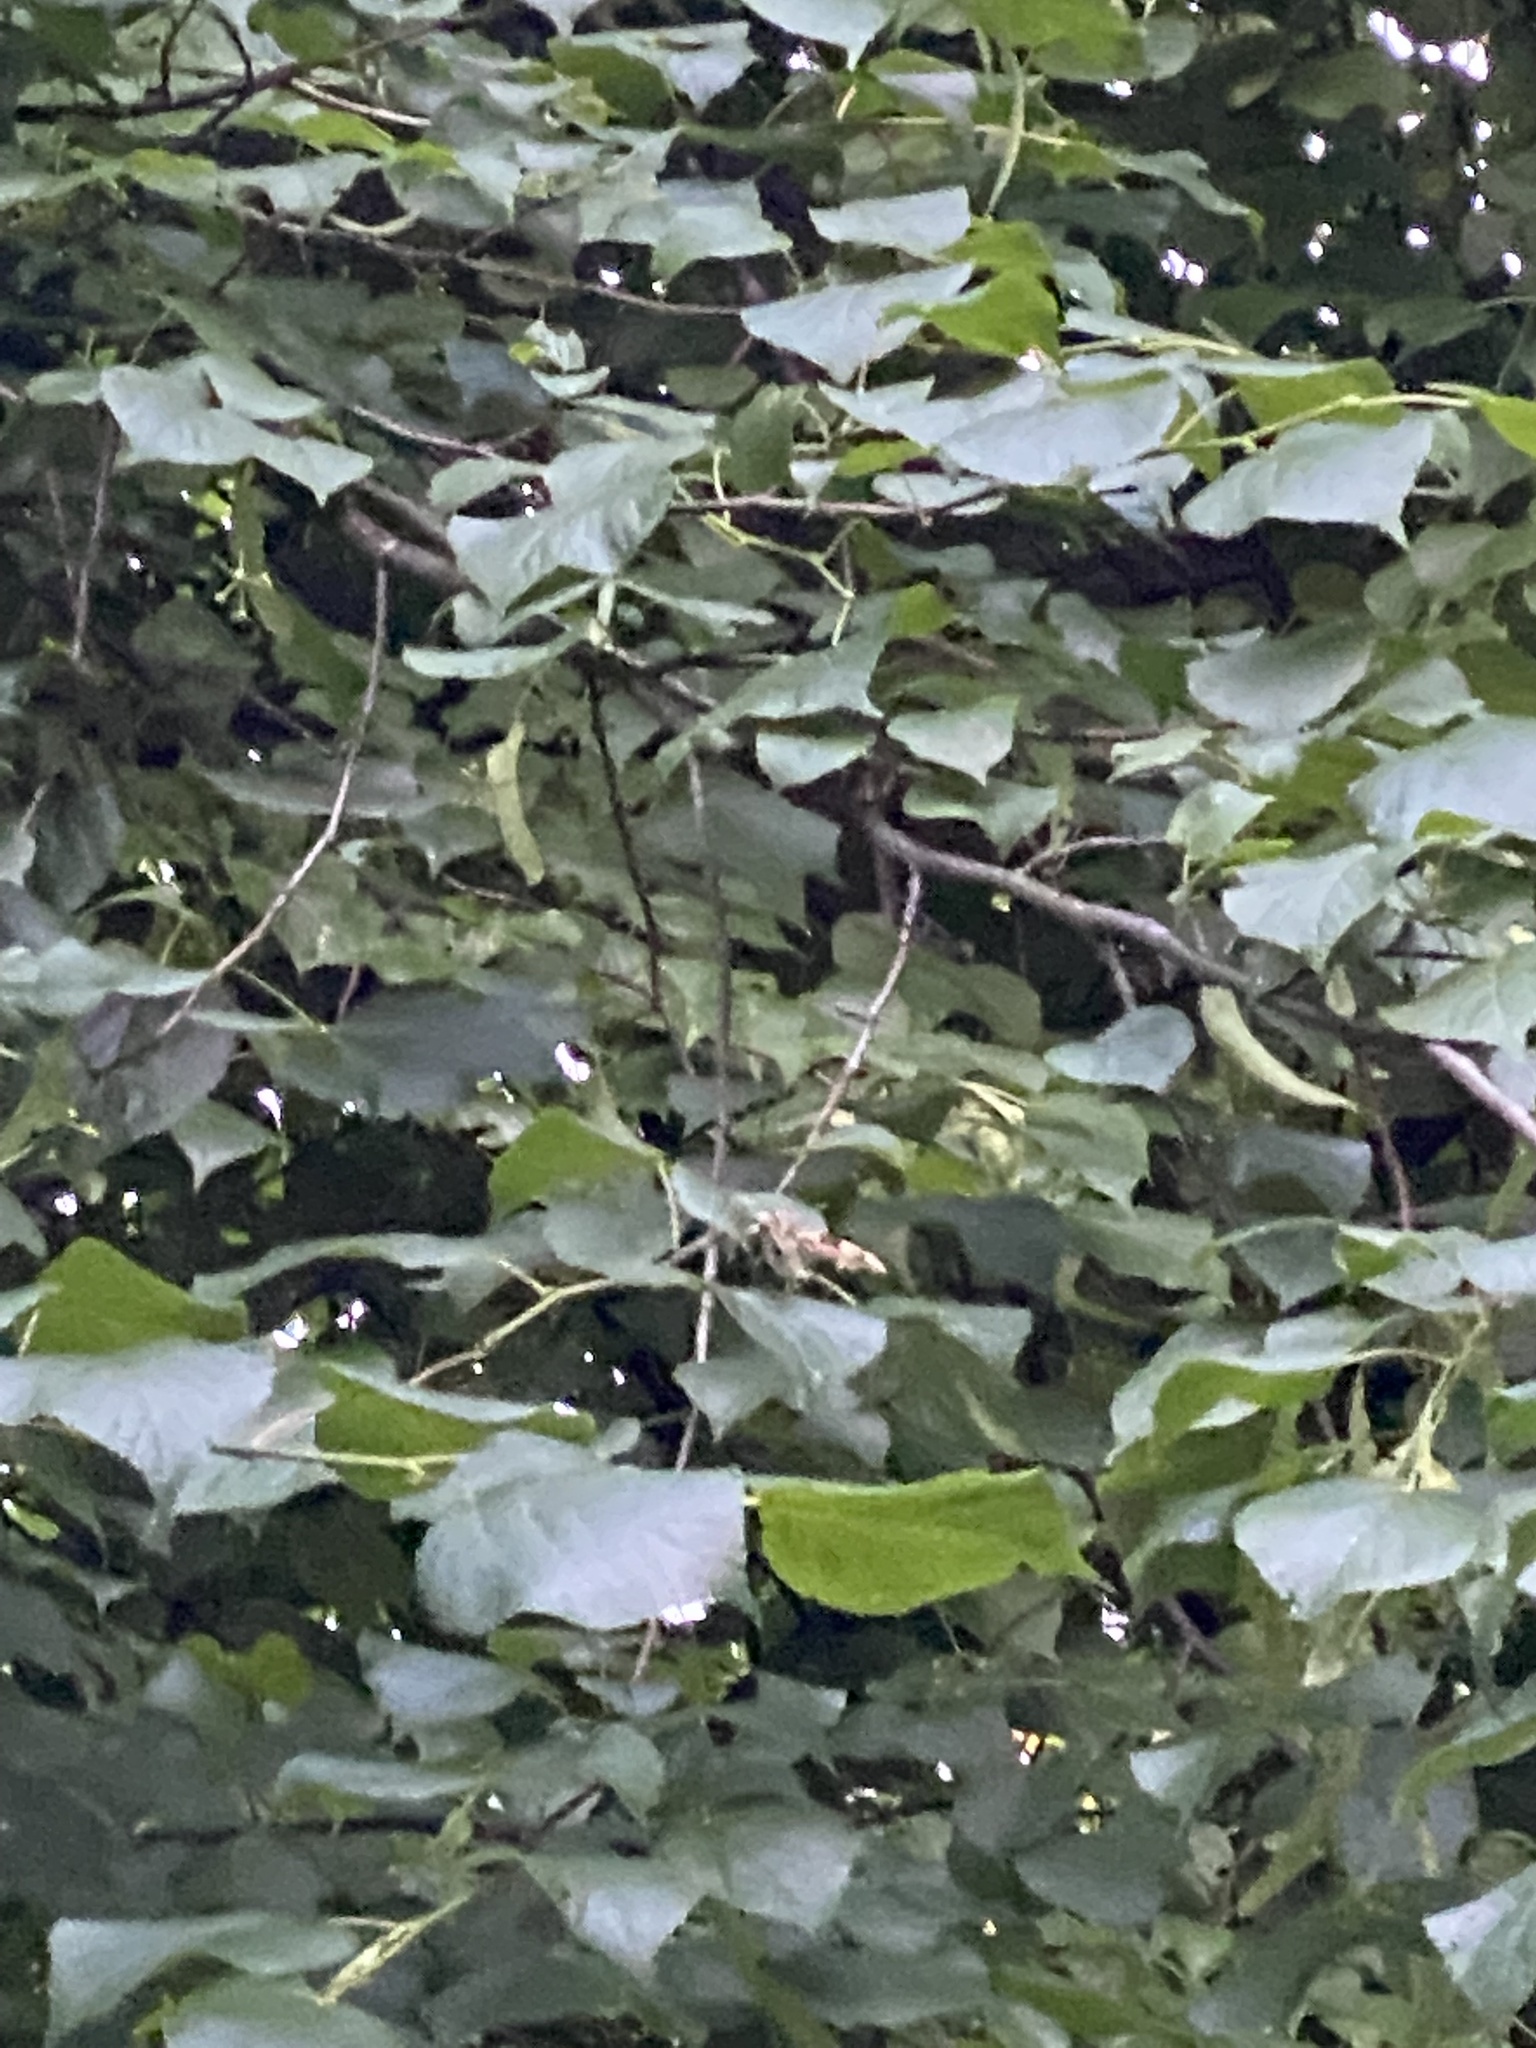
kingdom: Animalia
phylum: Arthropoda
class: Insecta
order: Lepidoptera
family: Sphingidae
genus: Mimas
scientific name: Mimas tiliae
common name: Lime hawk-moth
